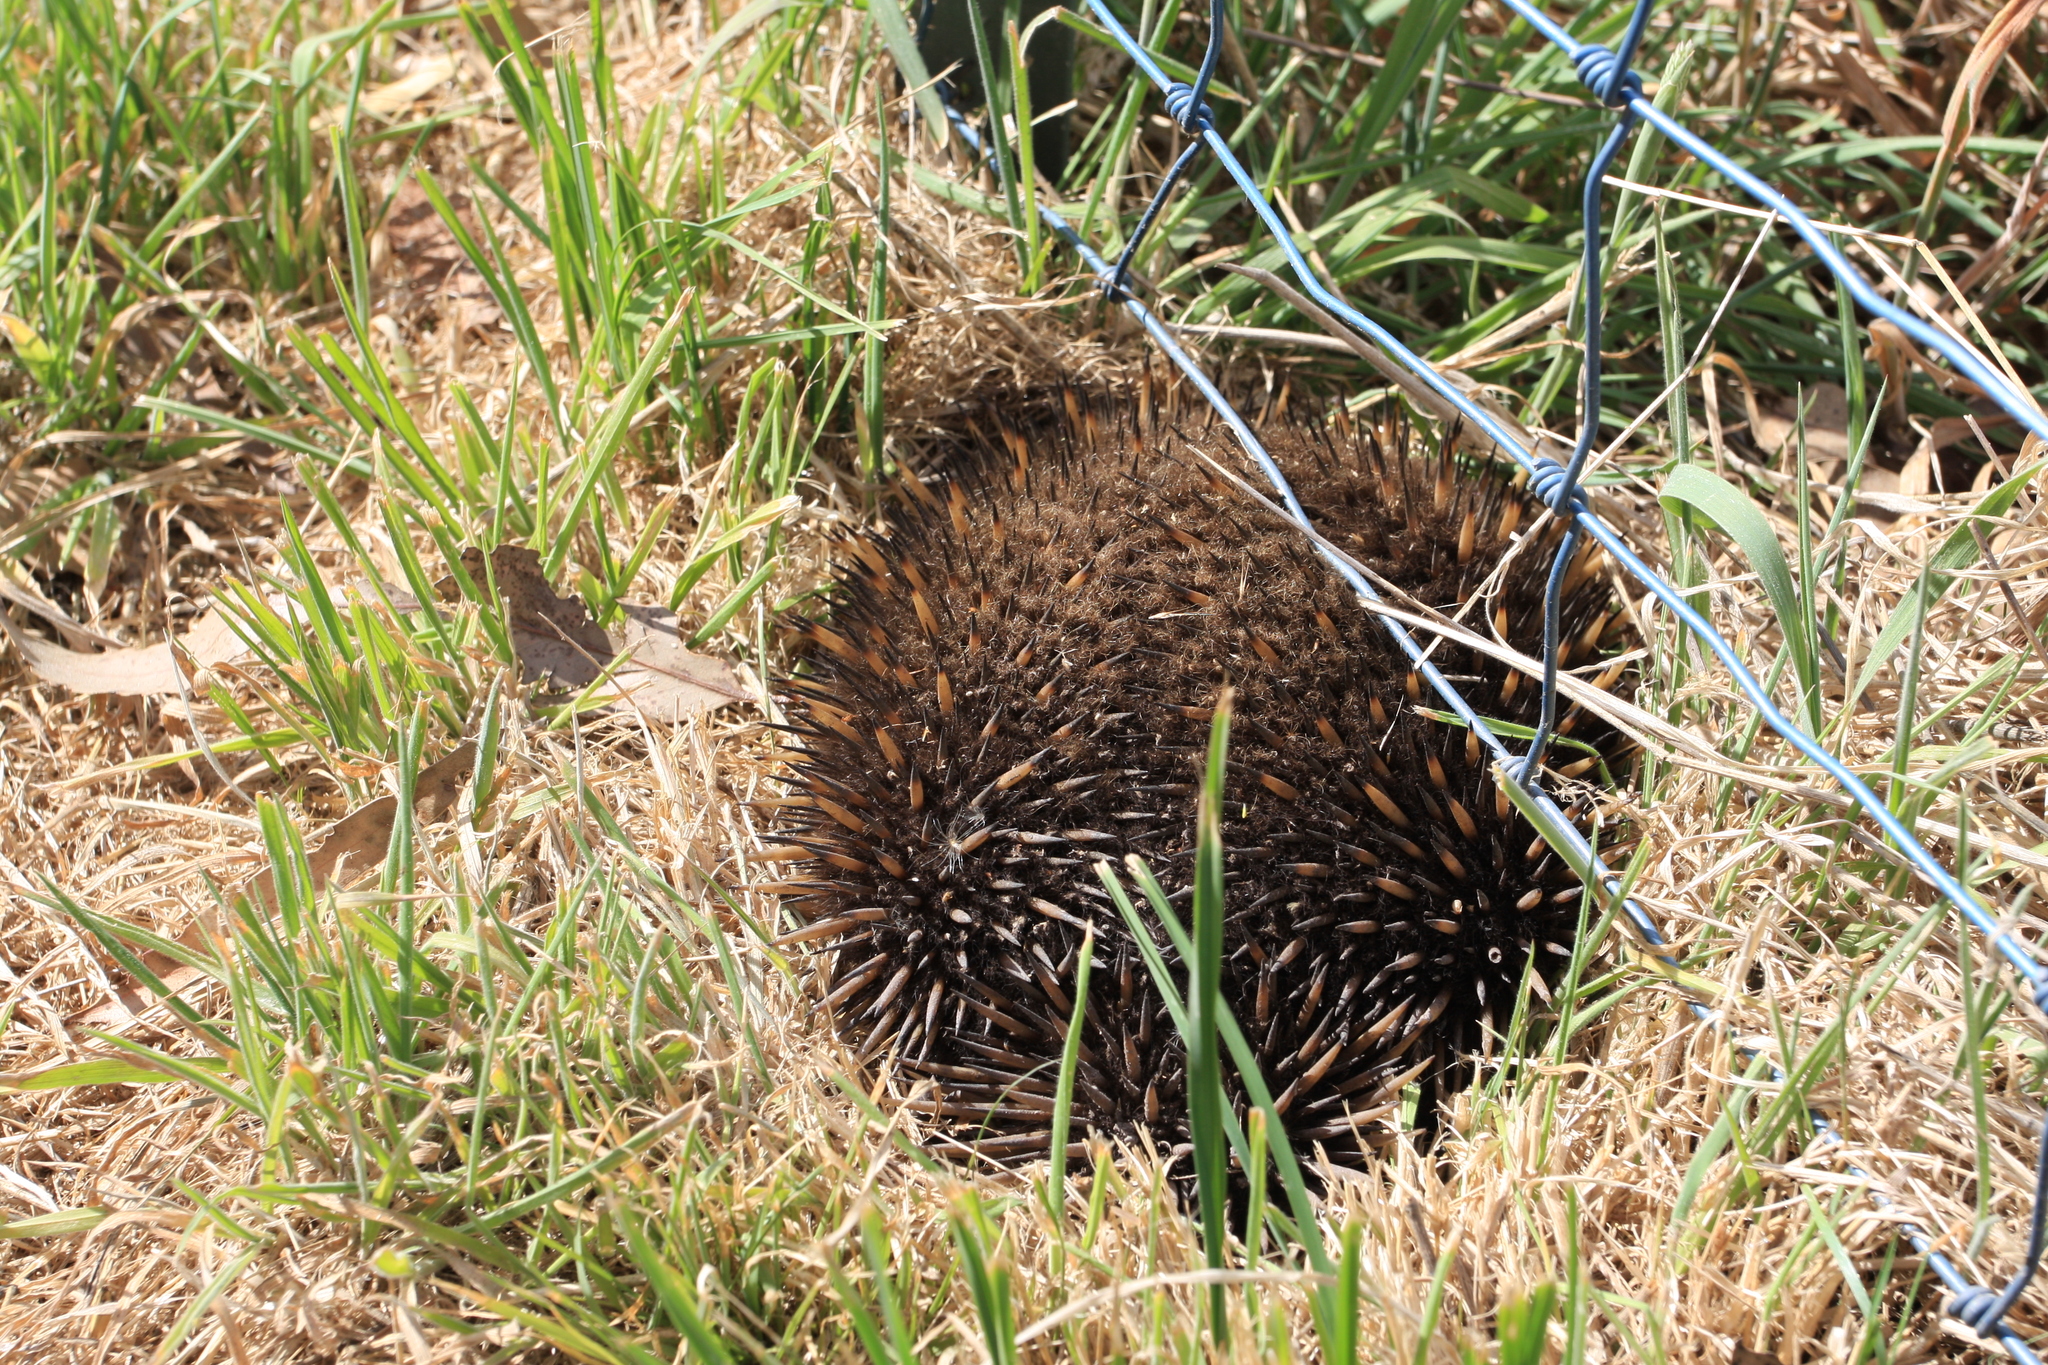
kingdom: Animalia
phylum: Chordata
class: Mammalia
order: Monotremata
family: Tachyglossidae
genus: Tachyglossus
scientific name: Tachyglossus aculeatus
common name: Short-beaked echidna
